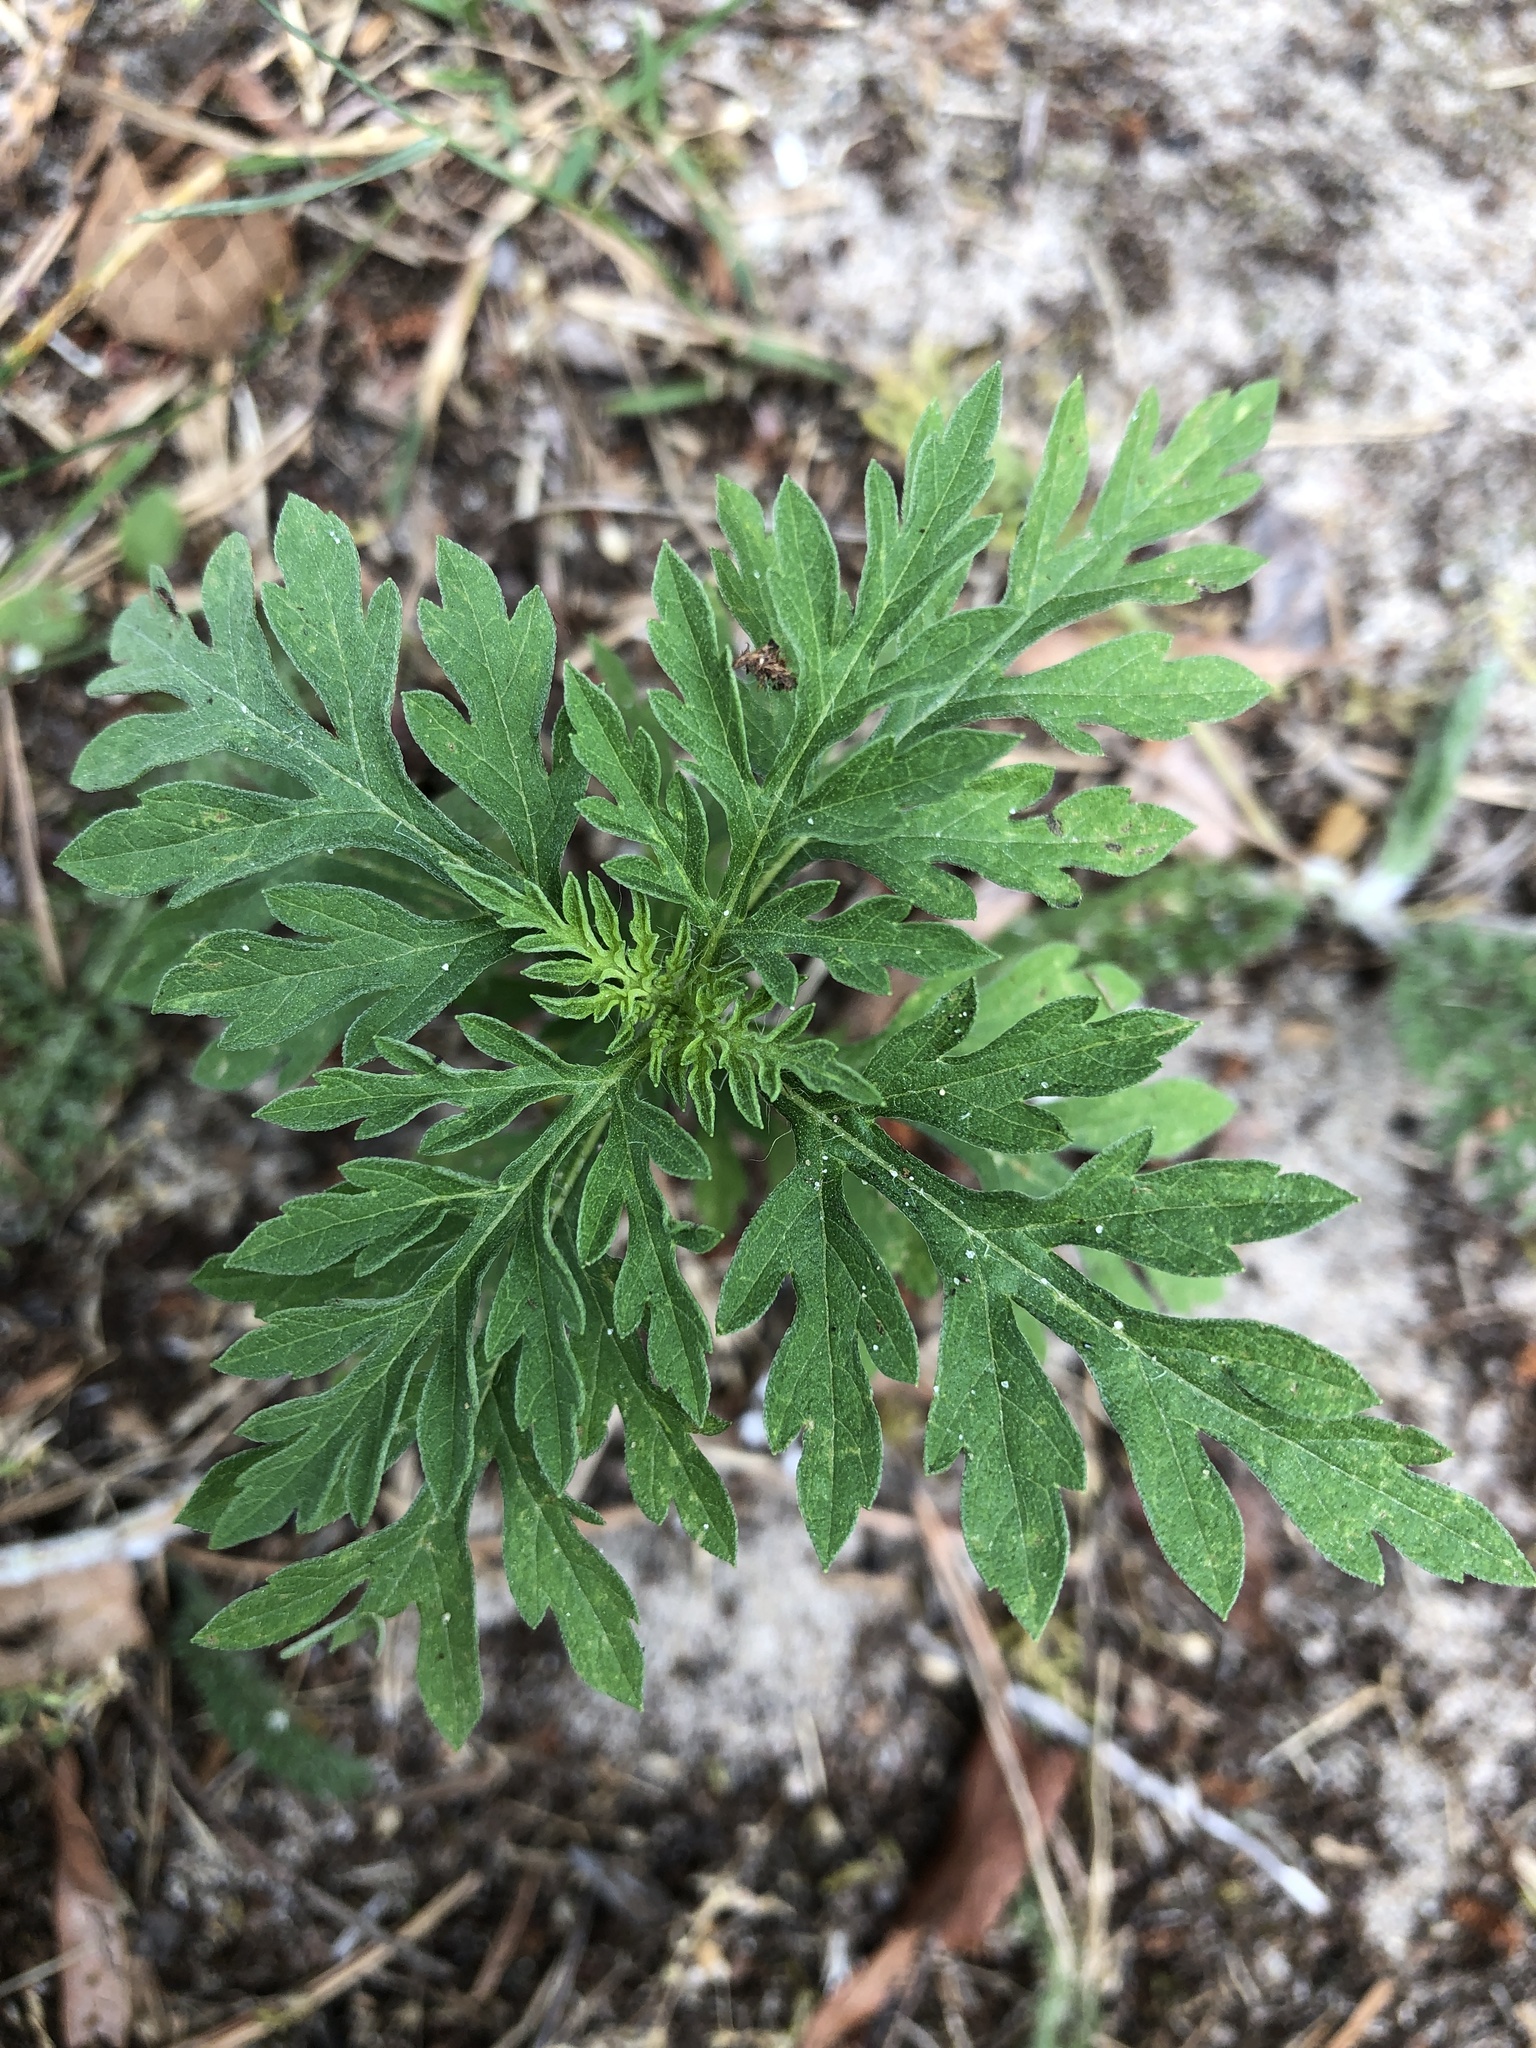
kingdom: Plantae
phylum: Tracheophyta
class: Magnoliopsida
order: Asterales
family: Asteraceae
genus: Ambrosia
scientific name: Ambrosia artemisiifolia
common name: Annual ragweed
